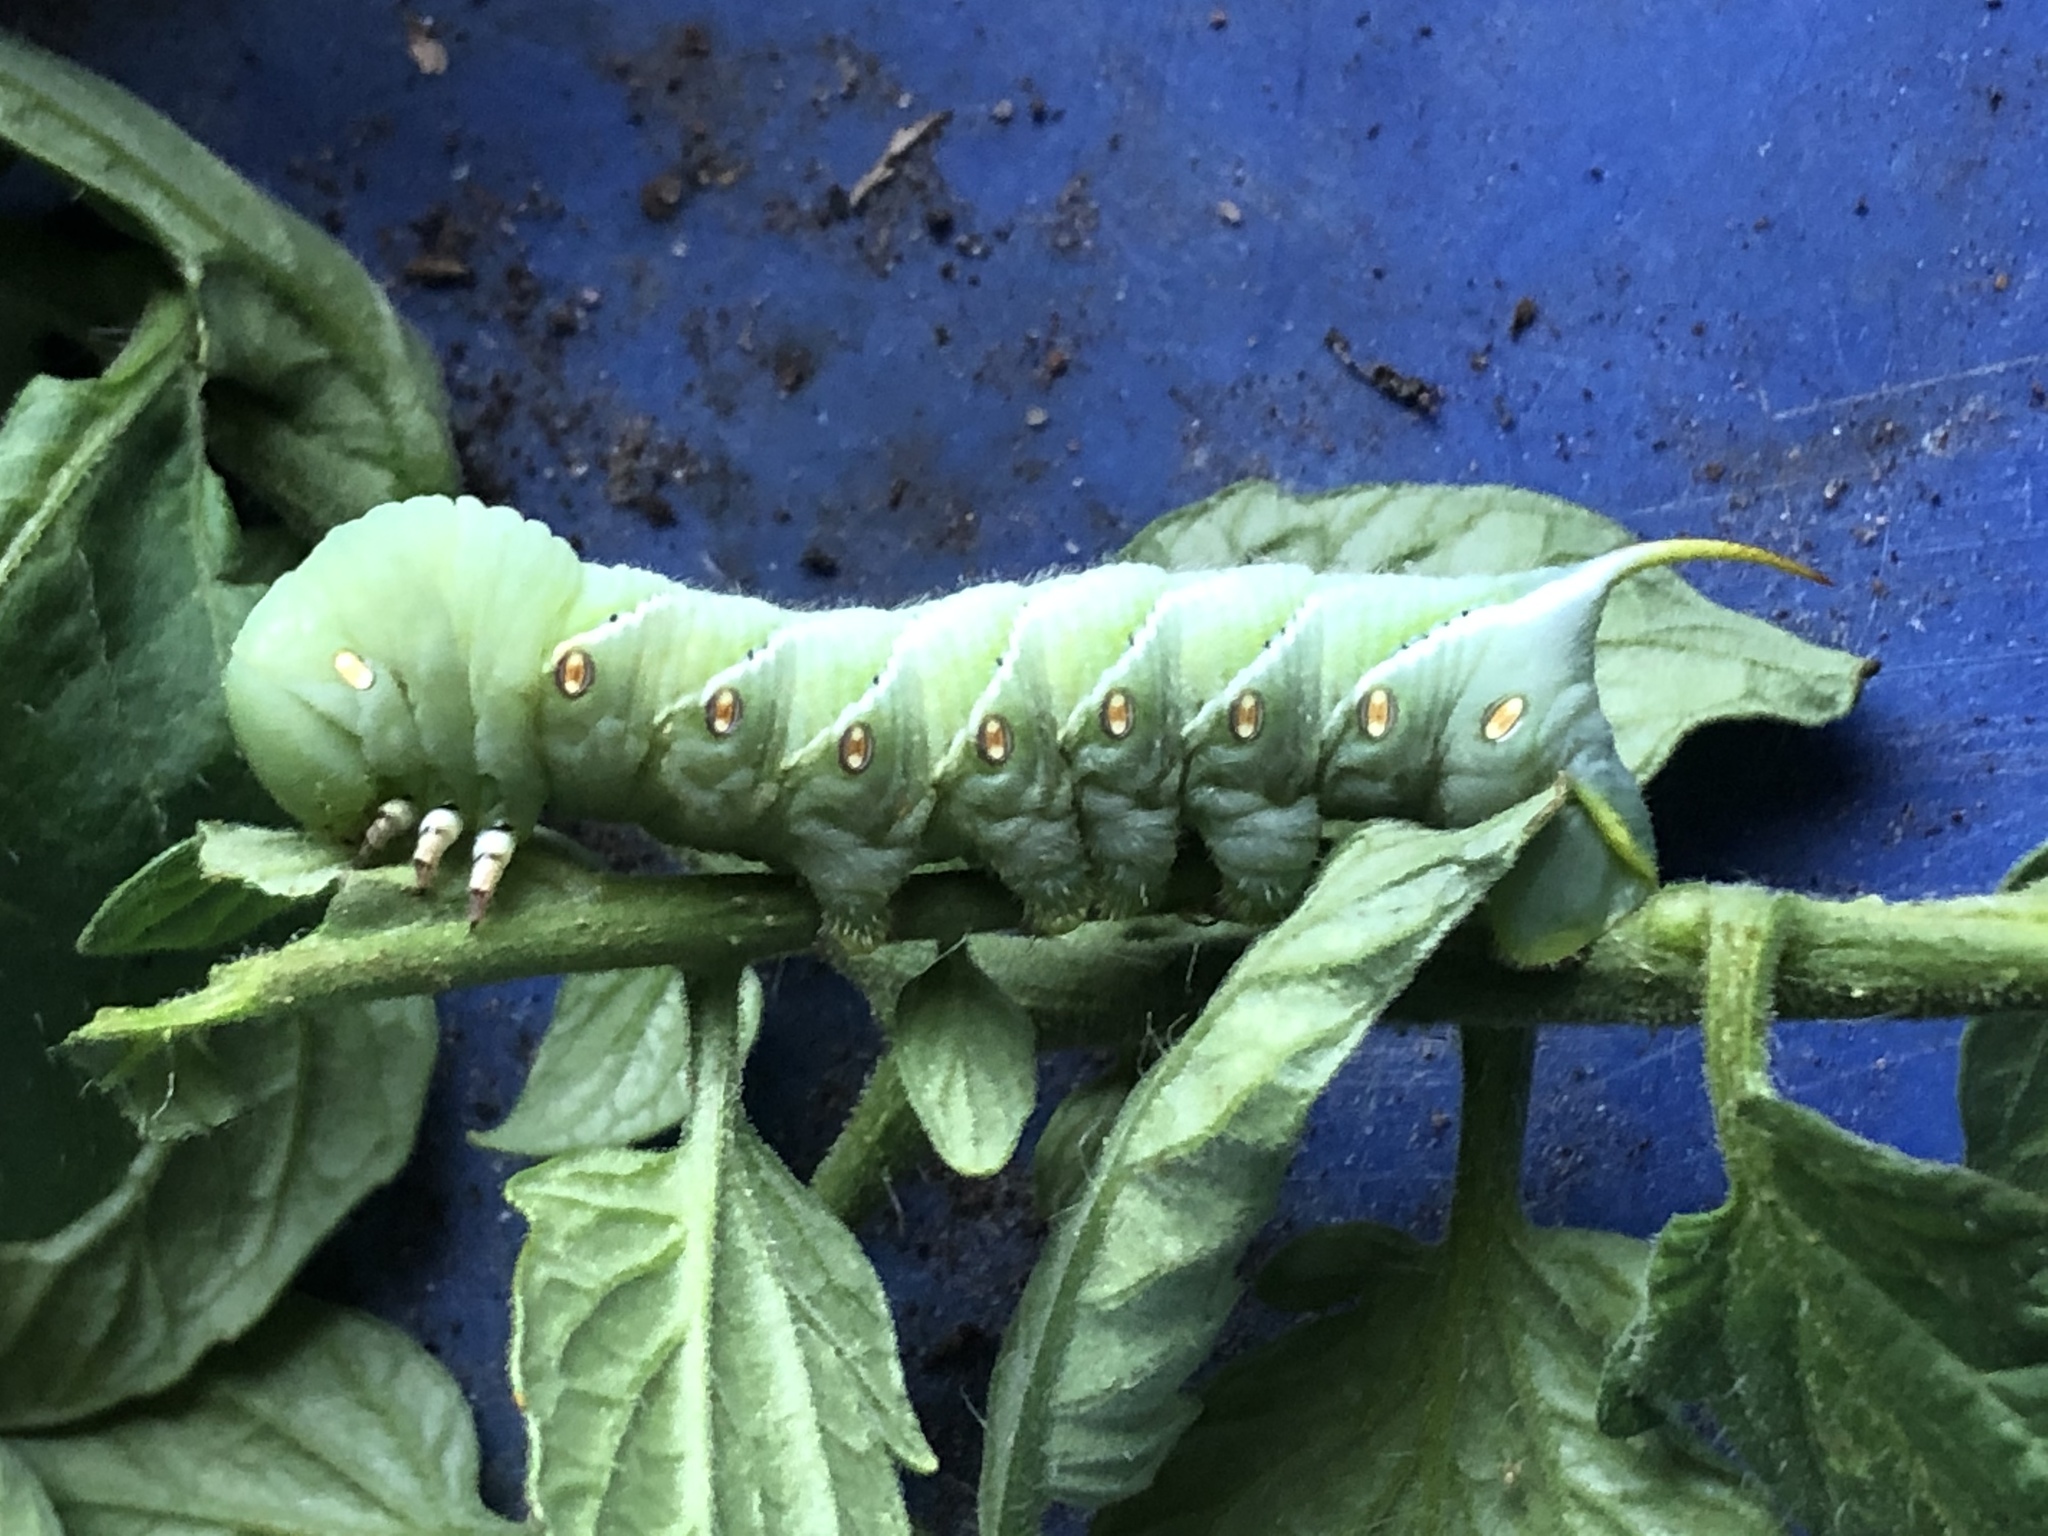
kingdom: Animalia
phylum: Arthropoda
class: Insecta
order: Lepidoptera
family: Sphingidae
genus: Manduca
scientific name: Manduca sexta
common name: Carolina sphinx
